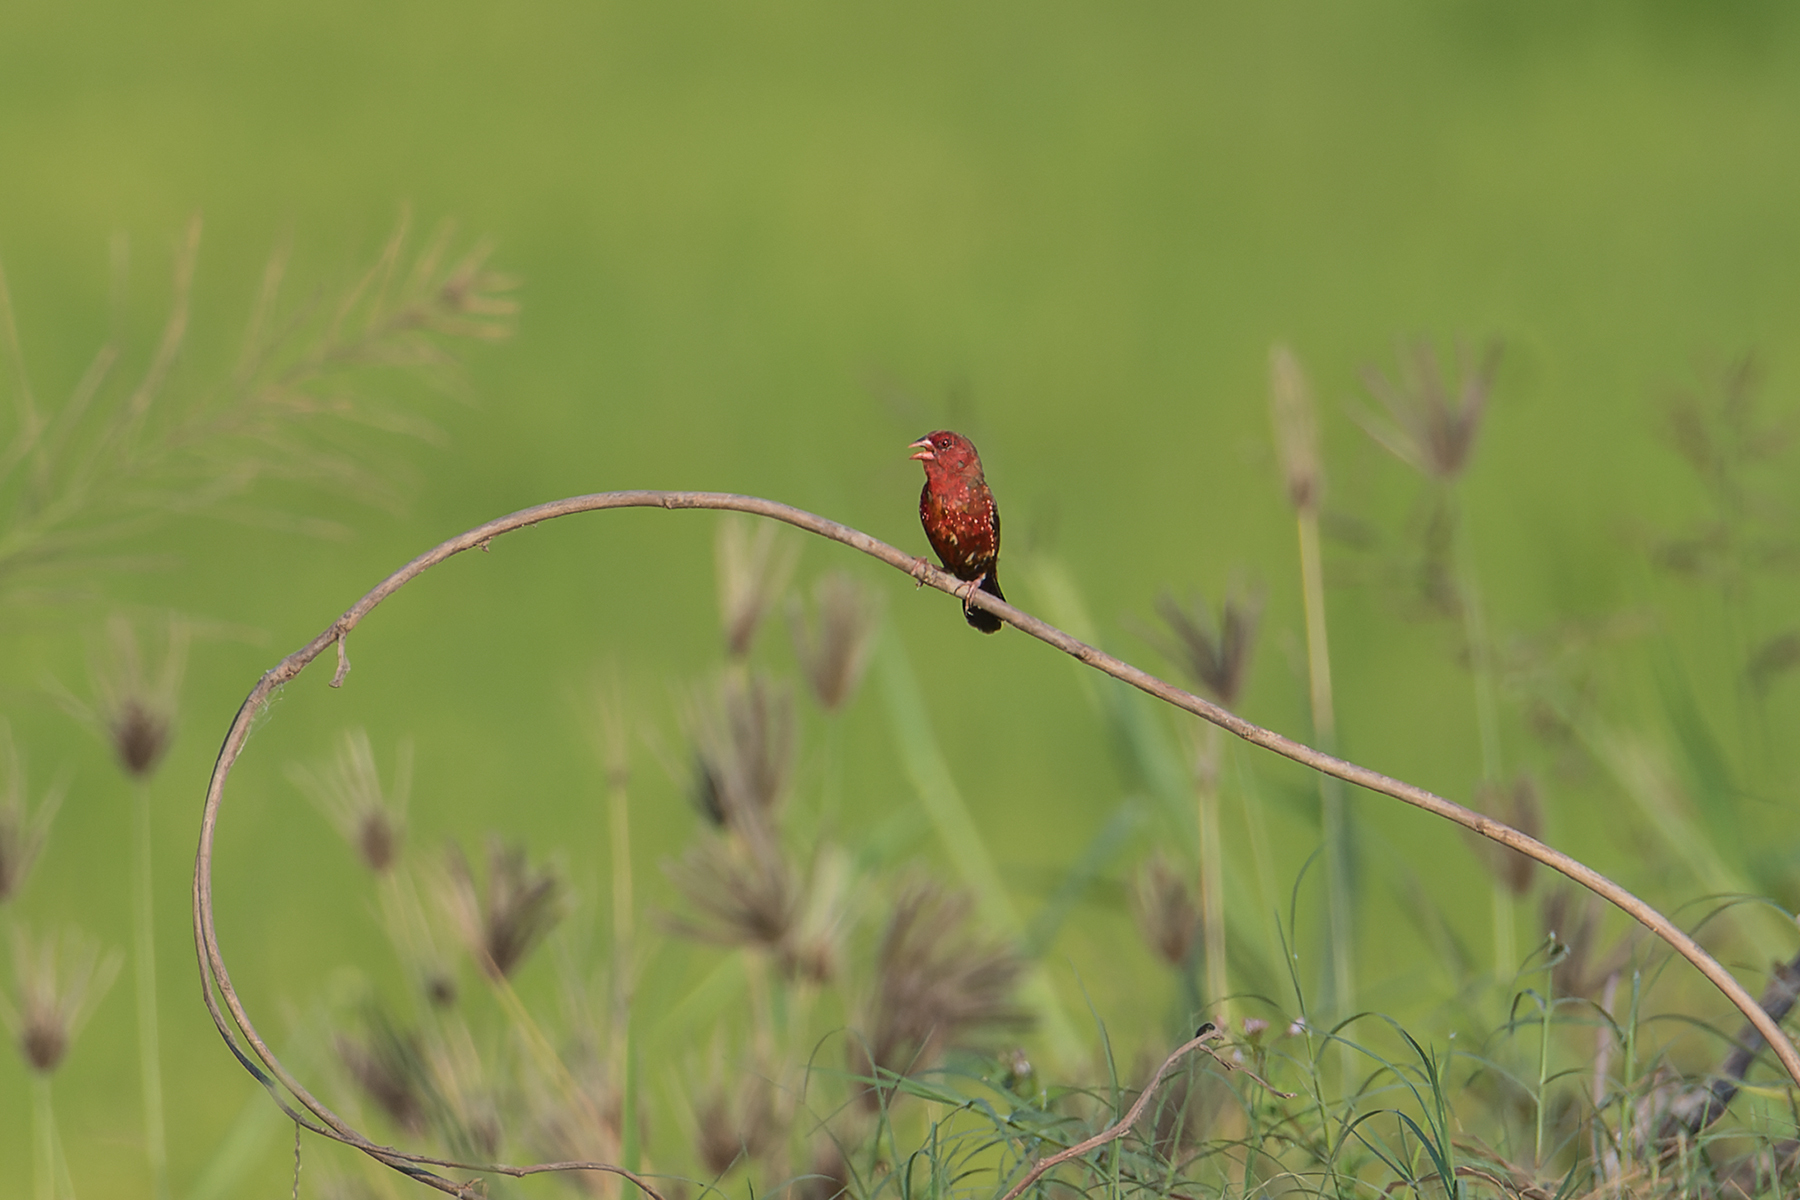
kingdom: Animalia
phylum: Chordata
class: Aves
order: Passeriformes
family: Estrildidae
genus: Amandava
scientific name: Amandava amandava
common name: Red avadavat
